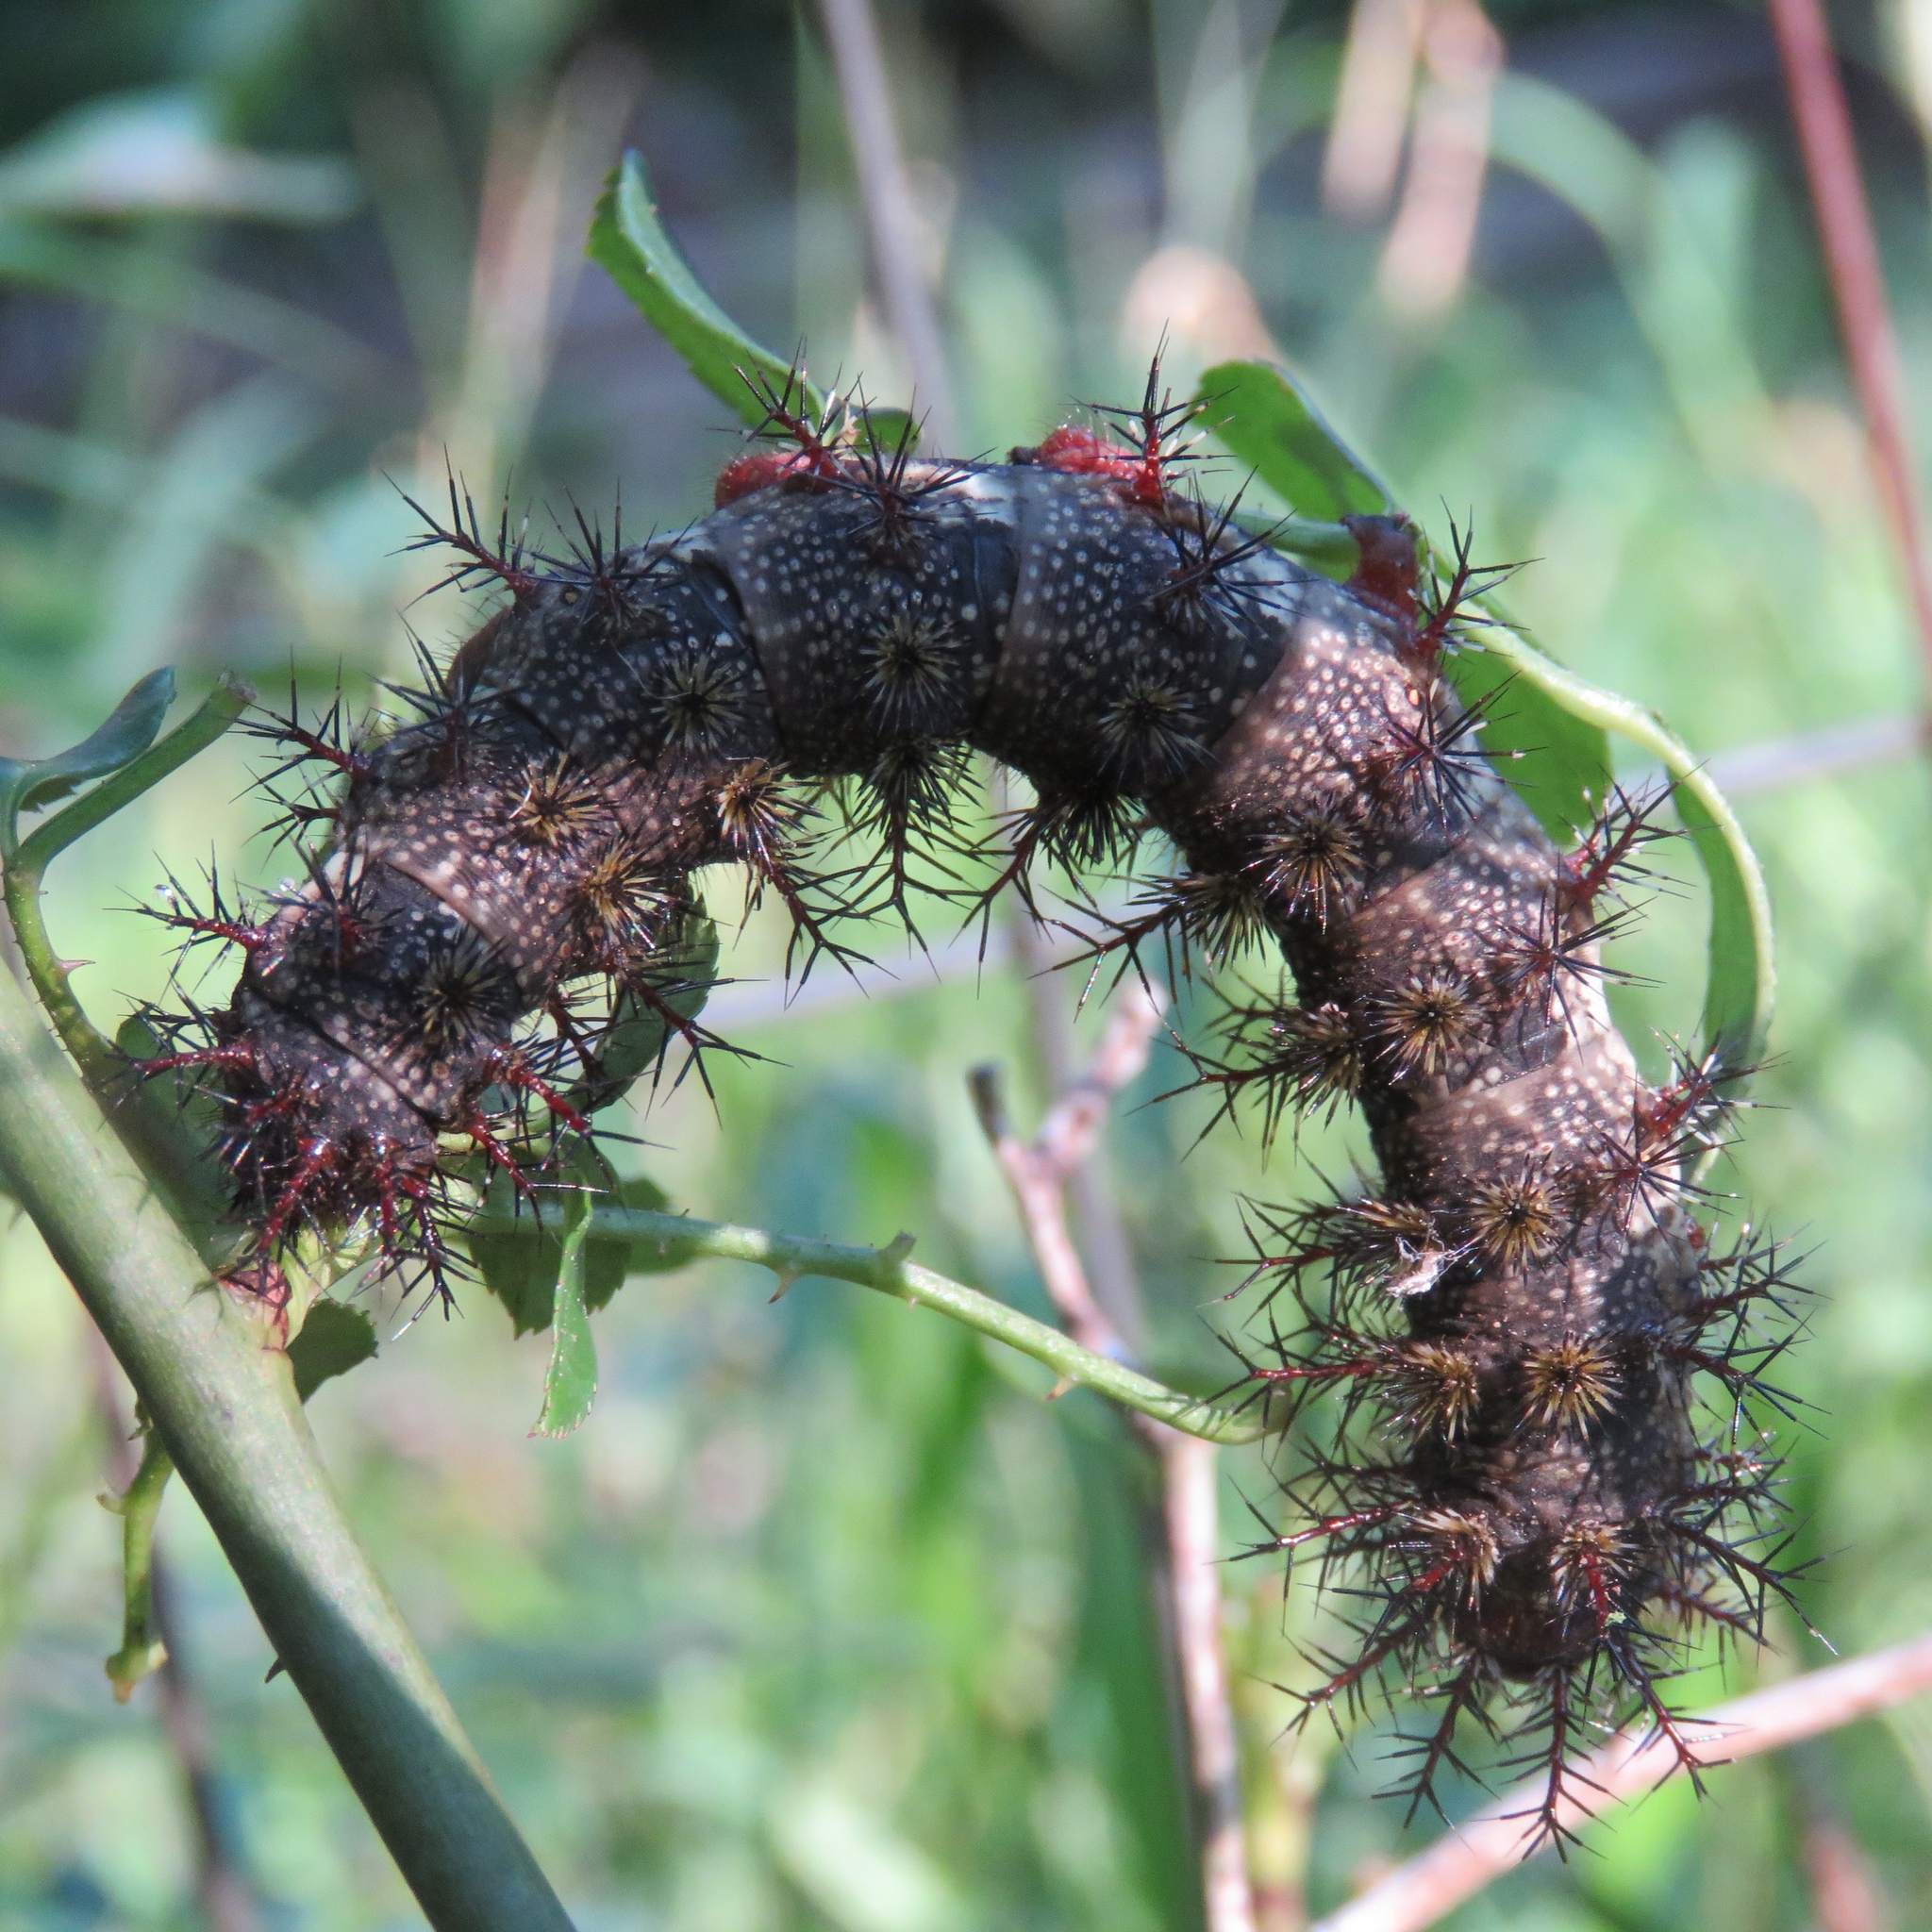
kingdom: Animalia
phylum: Arthropoda
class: Insecta
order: Lepidoptera
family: Saturniidae
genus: Hemileuca
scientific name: Hemileuca maia
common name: Eastern buckmoth
